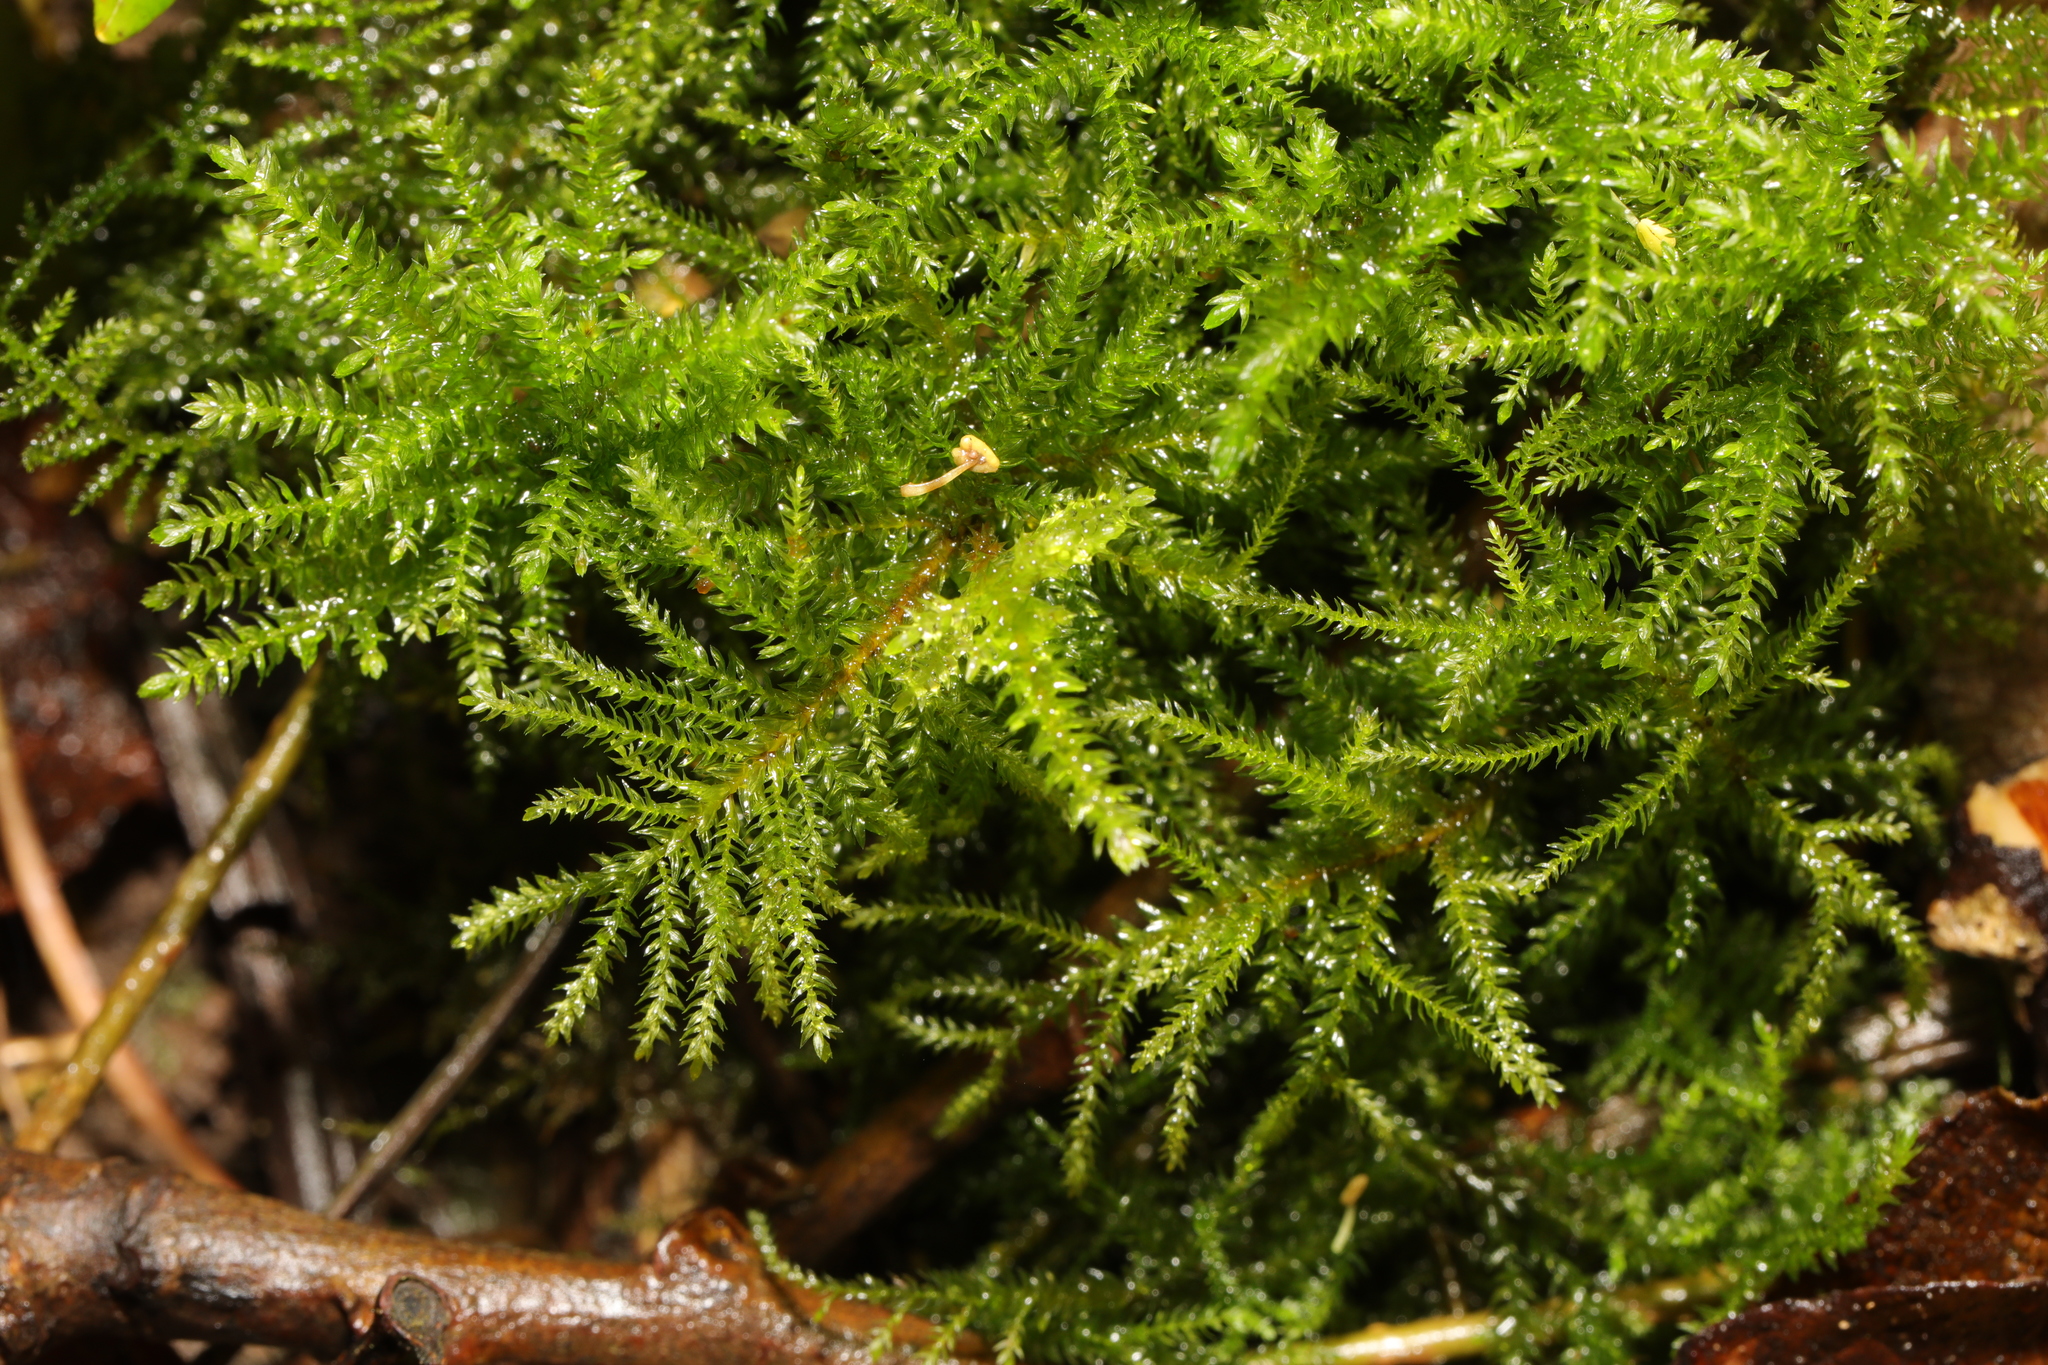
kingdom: Plantae
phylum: Bryophyta
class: Bryopsida
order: Hypnales
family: Brachytheciaceae
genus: Kindbergia
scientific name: Kindbergia praelonga
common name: Slender beaked moss
